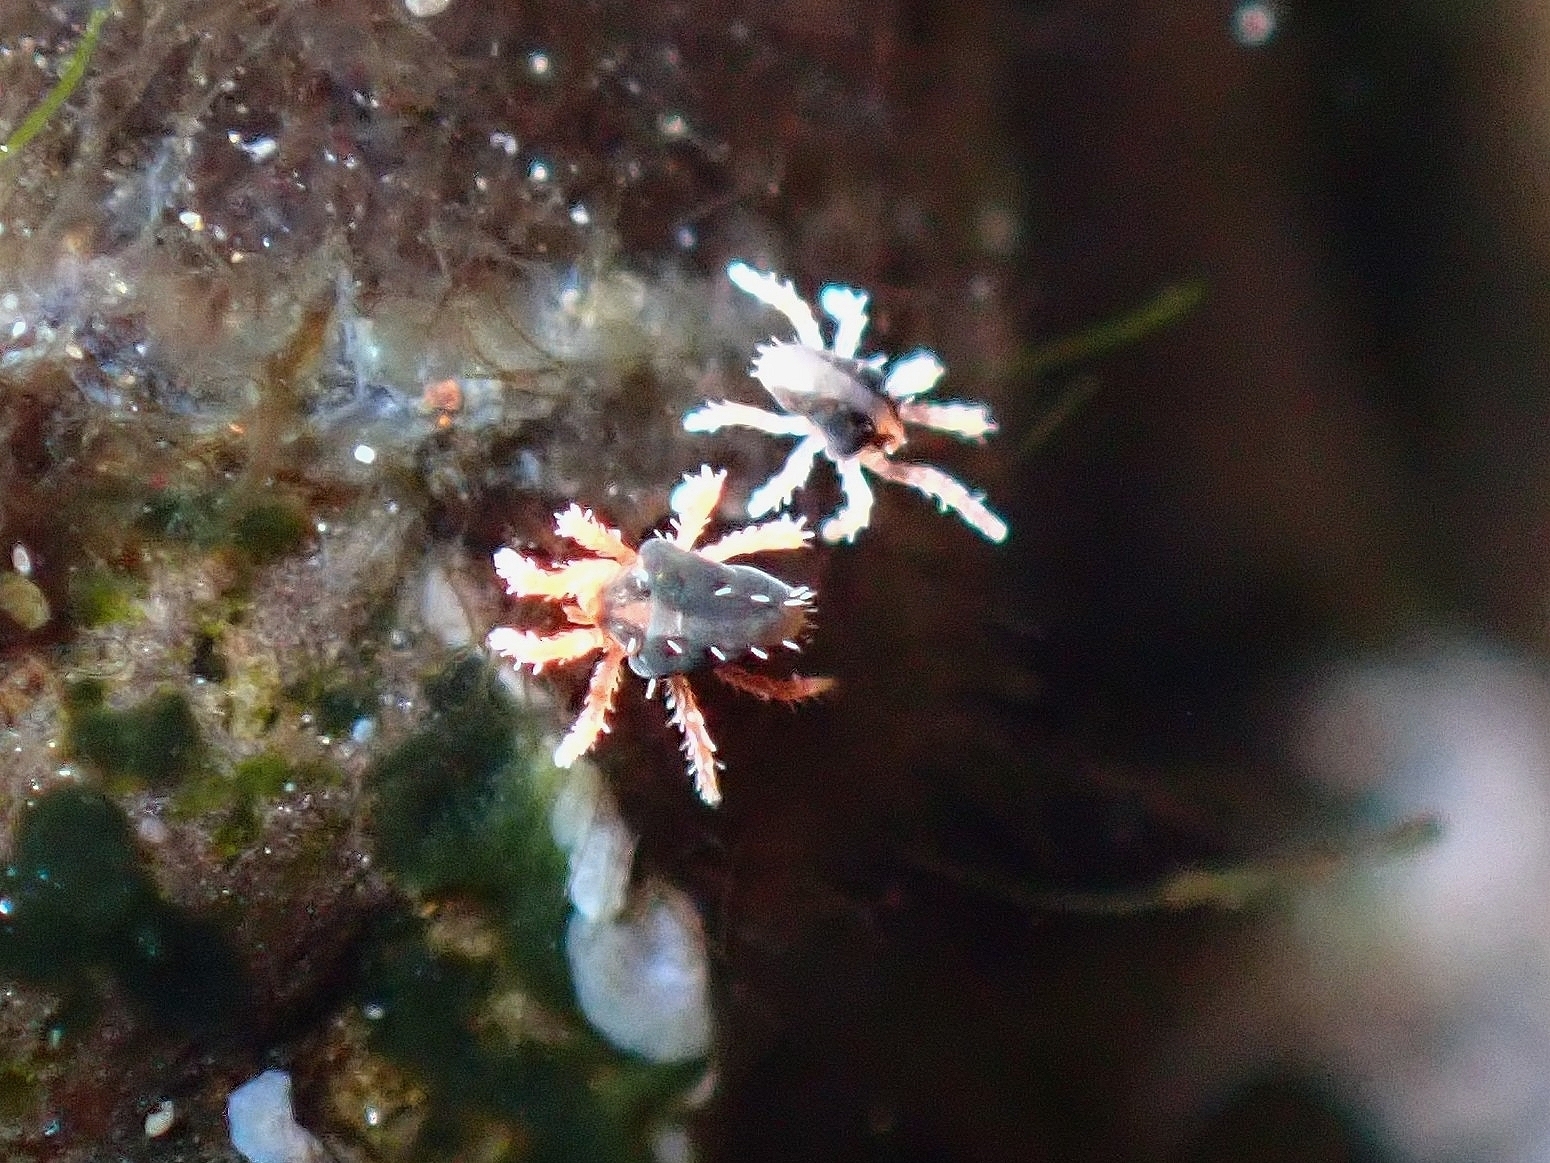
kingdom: Animalia
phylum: Arthropoda
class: Arachnida
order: Trombidiformes
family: Penthaleidae
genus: Halotydeus
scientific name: Halotydeus hydrodromus
